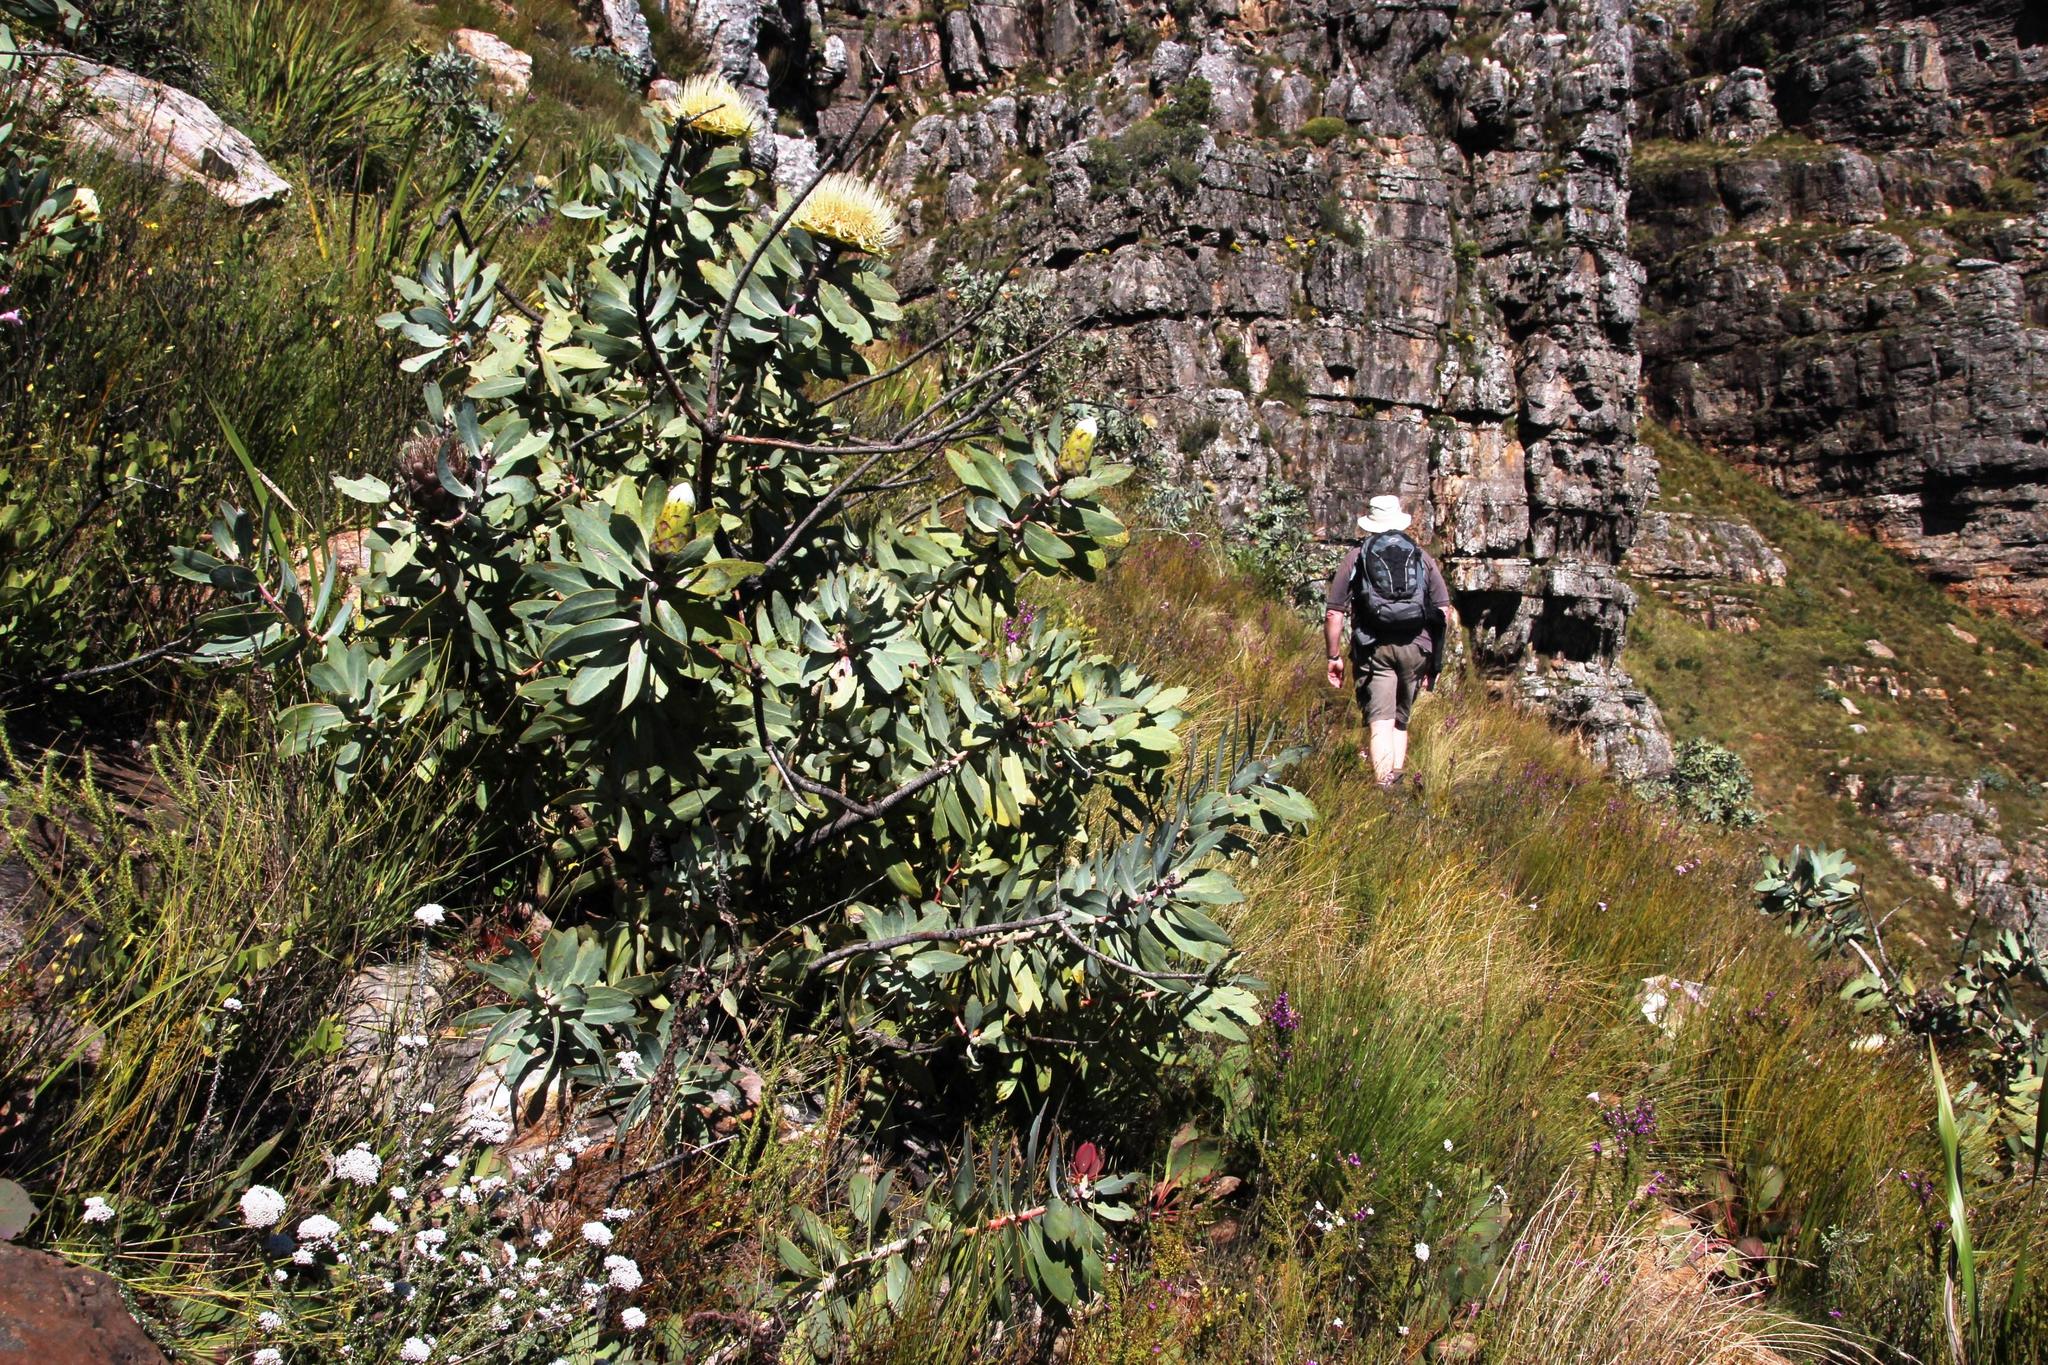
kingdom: Plantae
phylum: Tracheophyta
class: Magnoliopsida
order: Proteales
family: Proteaceae
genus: Protea
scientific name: Protea nitida
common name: Tree protea
